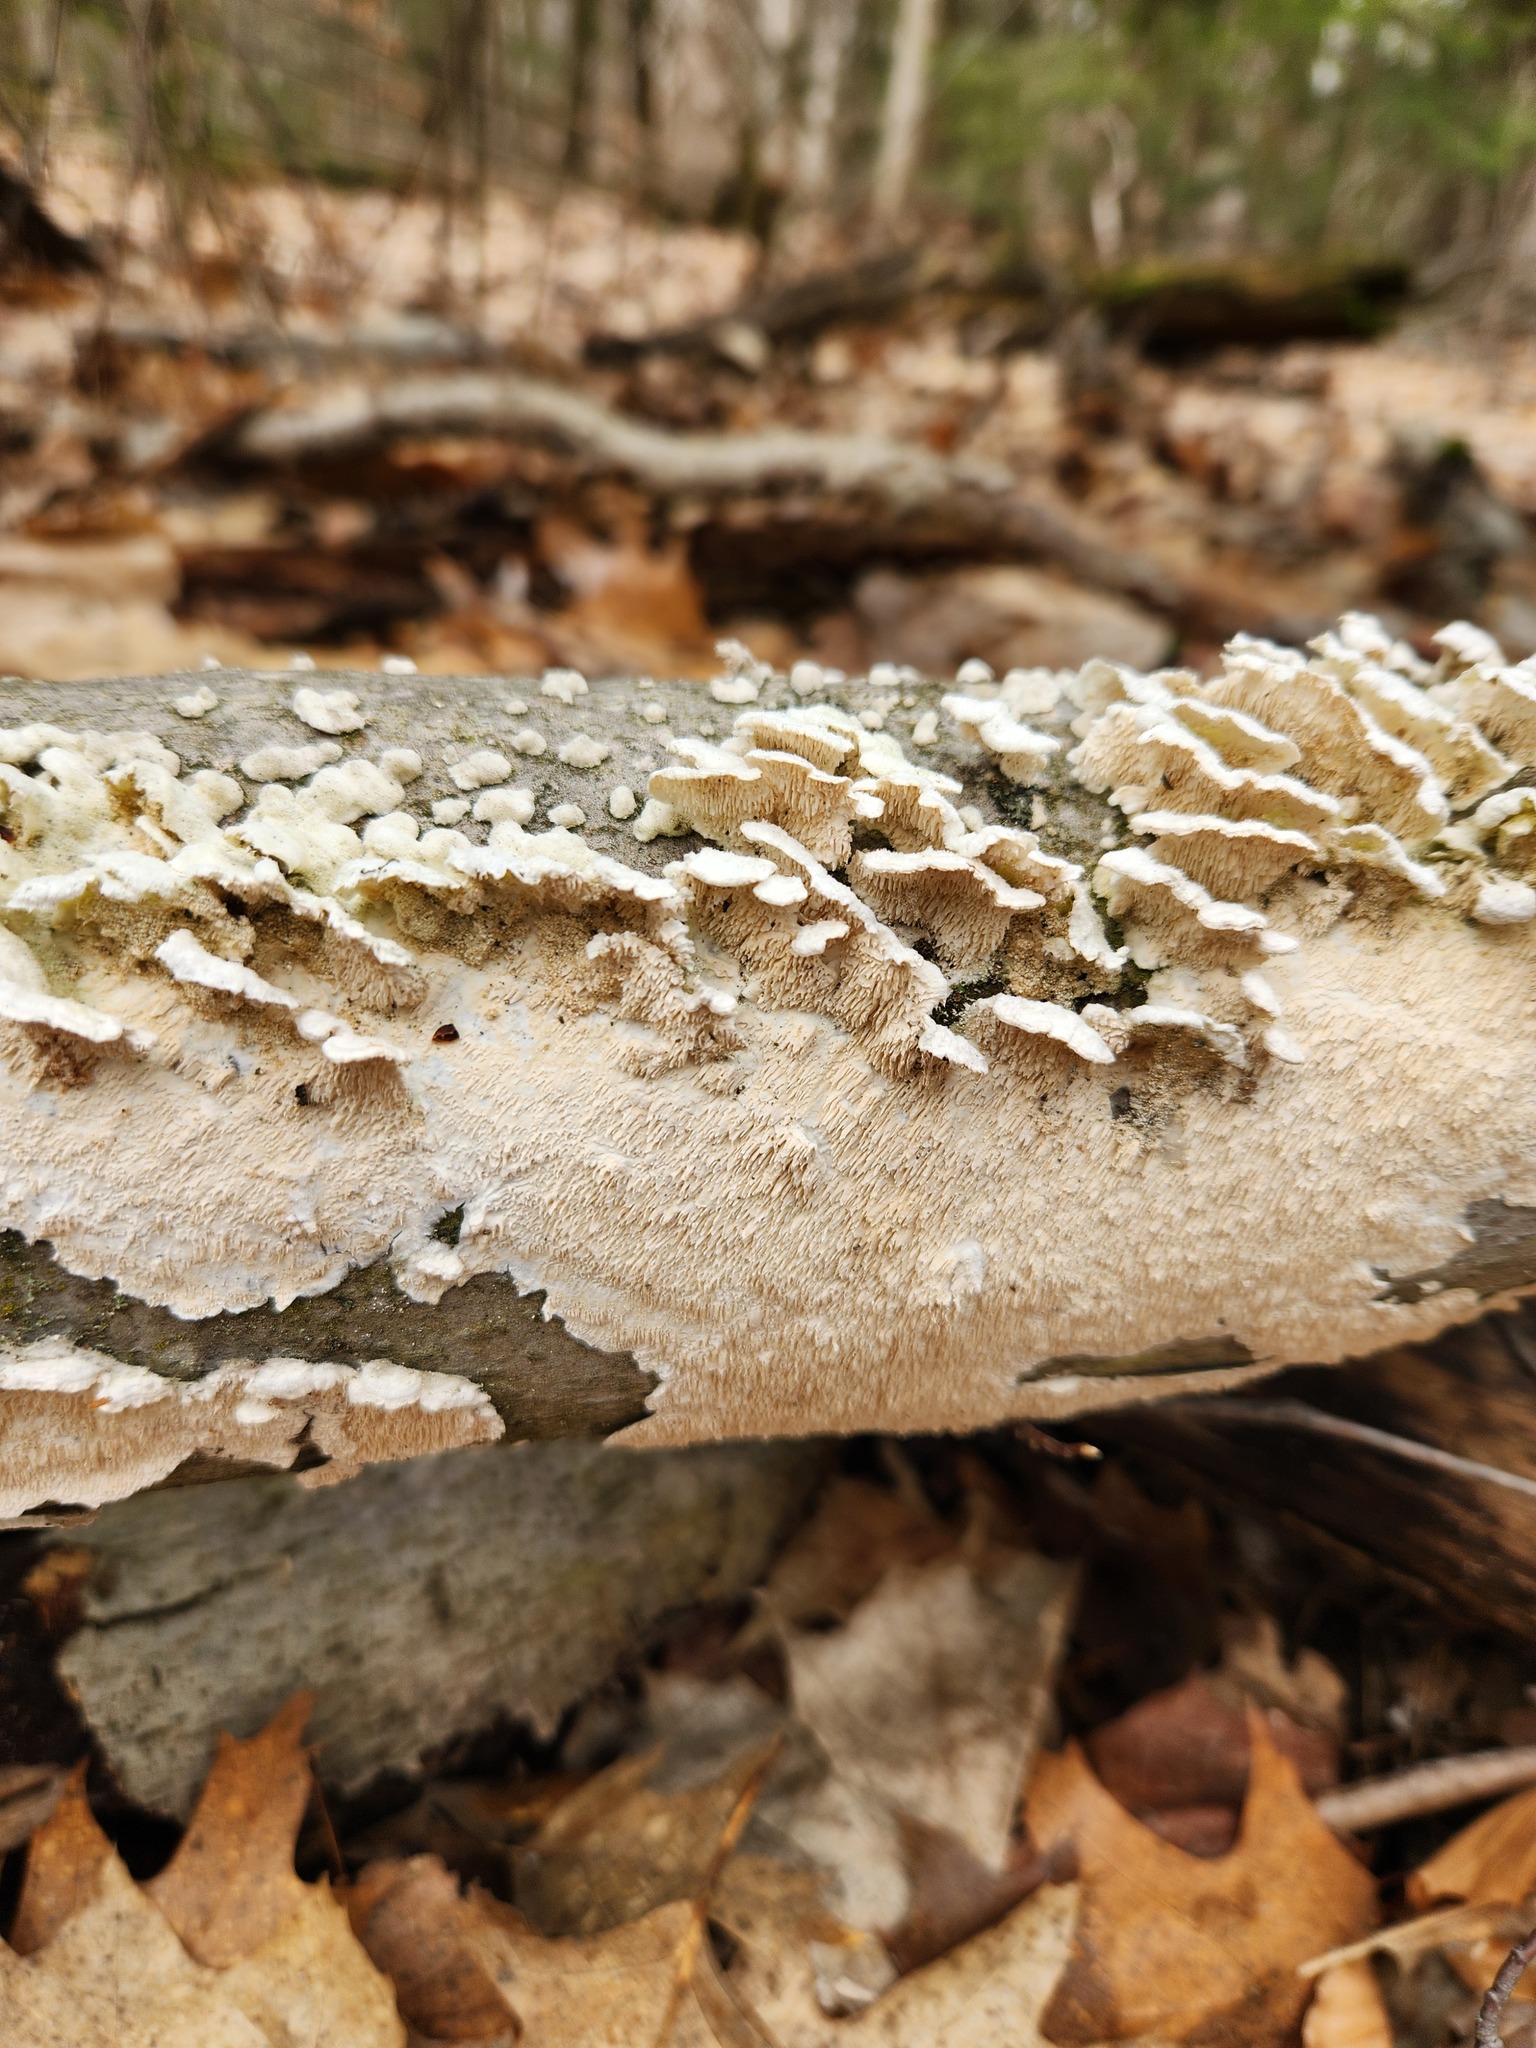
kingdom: Fungi
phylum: Basidiomycota
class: Agaricomycetes
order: Polyporales
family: Irpicaceae
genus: Irpex
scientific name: Irpex lacteus
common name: Milk-white toothed polypore
